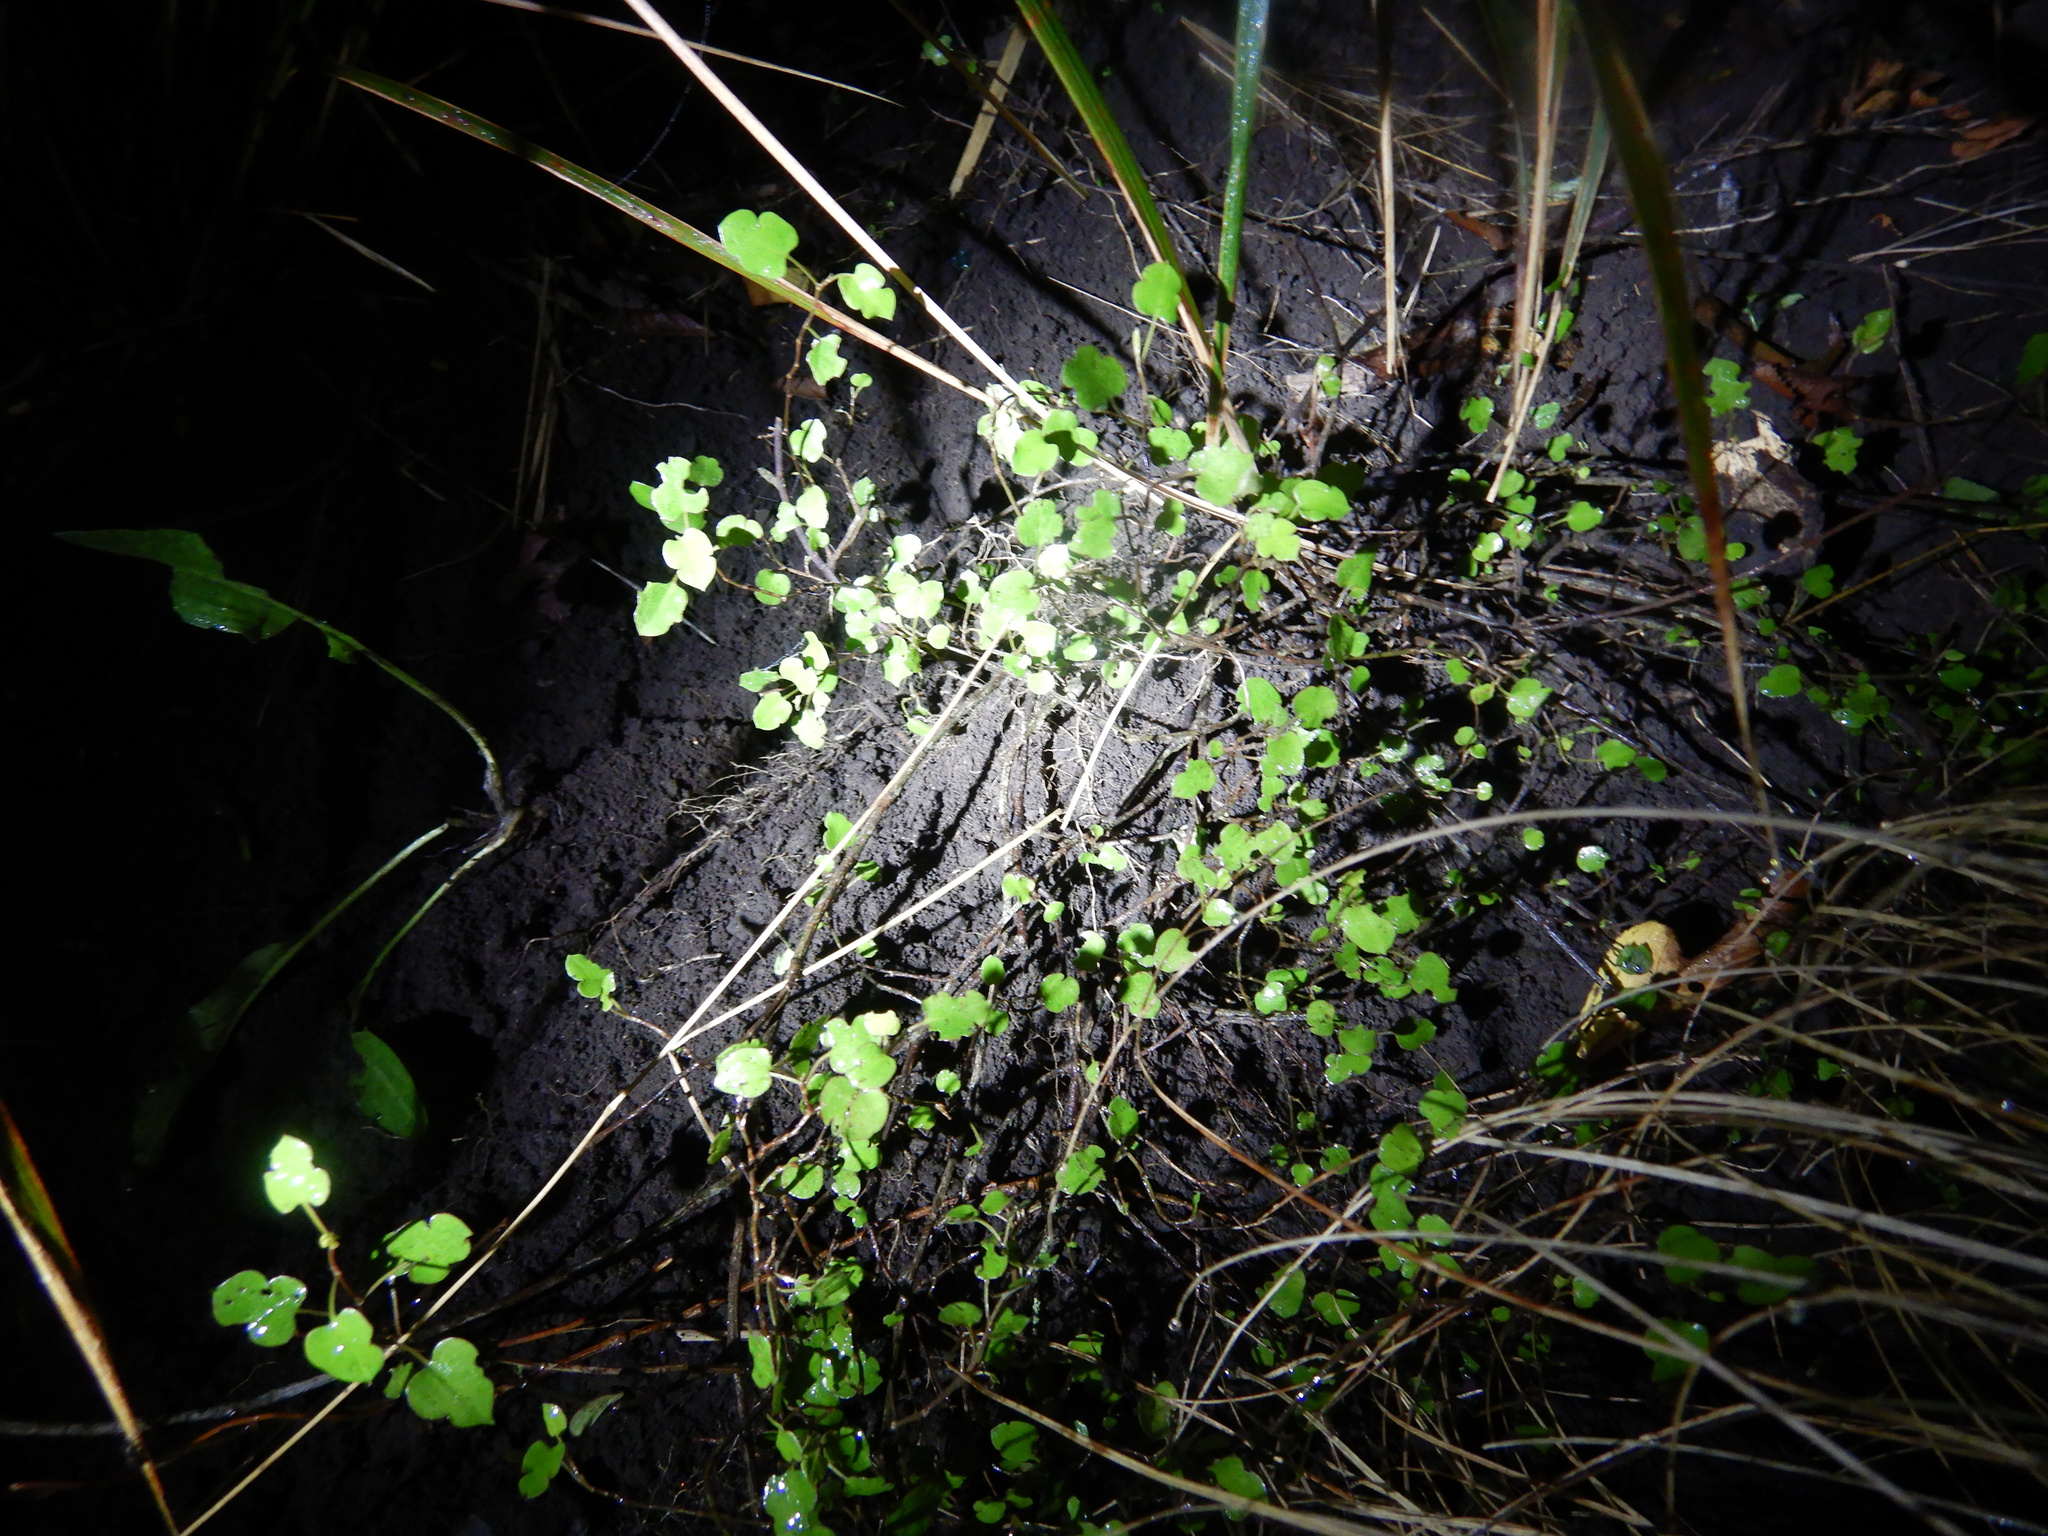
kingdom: Plantae
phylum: Tracheophyta
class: Magnoliopsida
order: Caryophyllales
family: Polygonaceae
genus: Muehlenbeckia
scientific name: Muehlenbeckia australis
